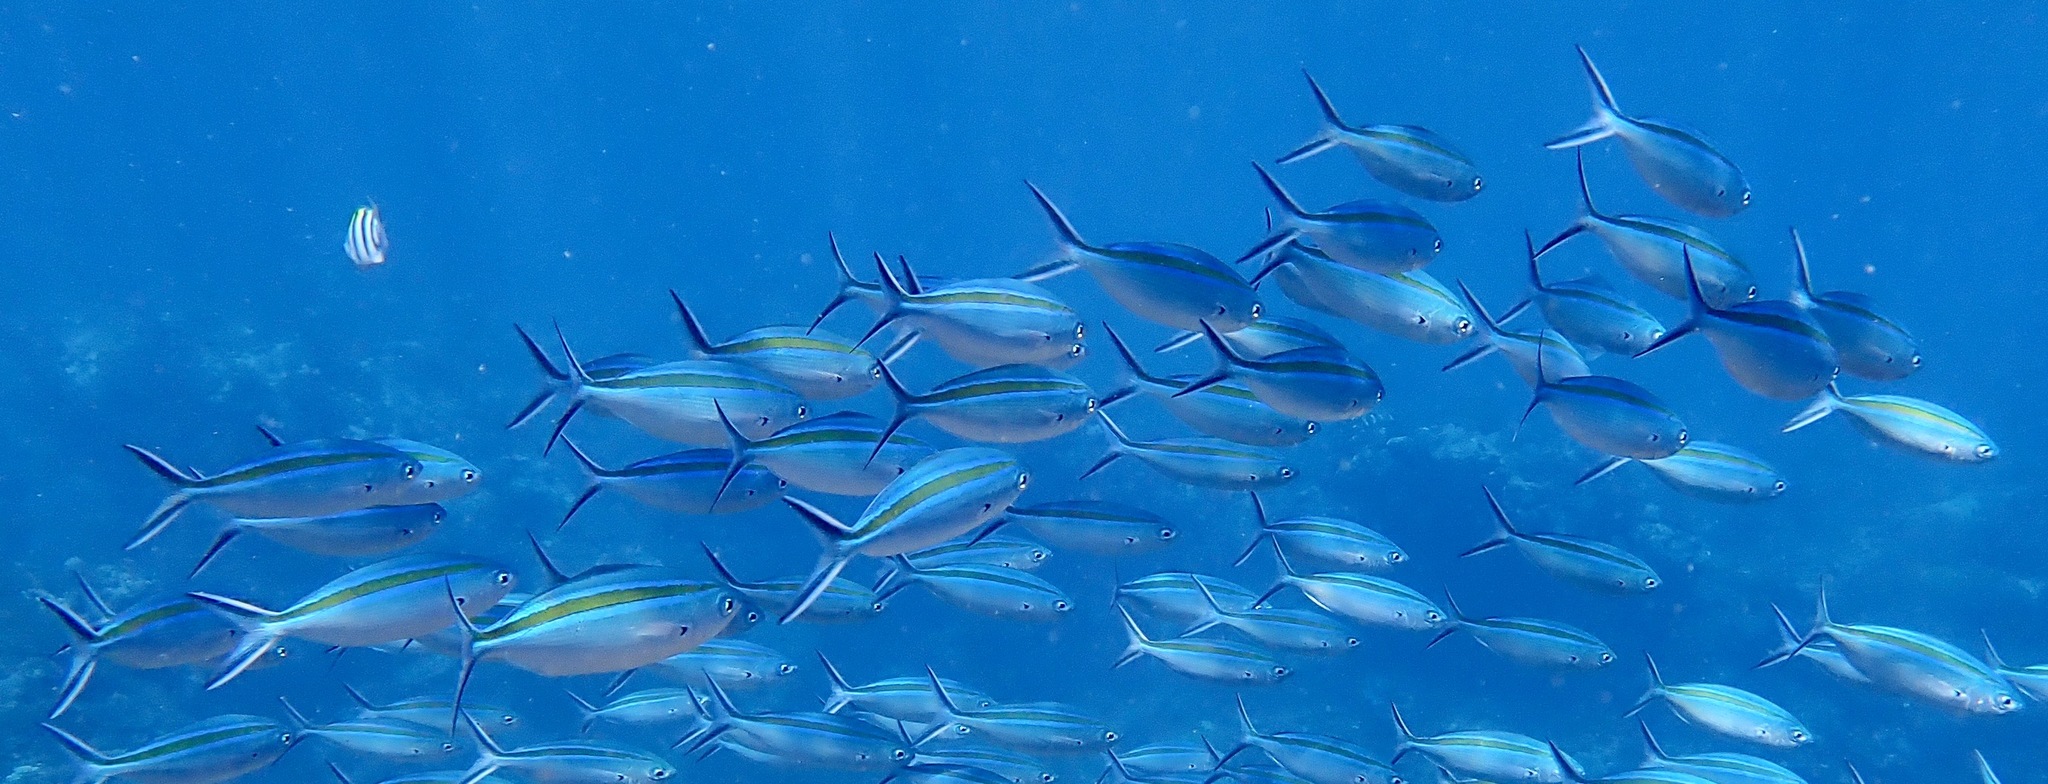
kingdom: Animalia
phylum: Chordata
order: Perciformes
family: Caesionidae
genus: Caesio
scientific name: Caesio caerulaurea
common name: Blue and gold fusilier
